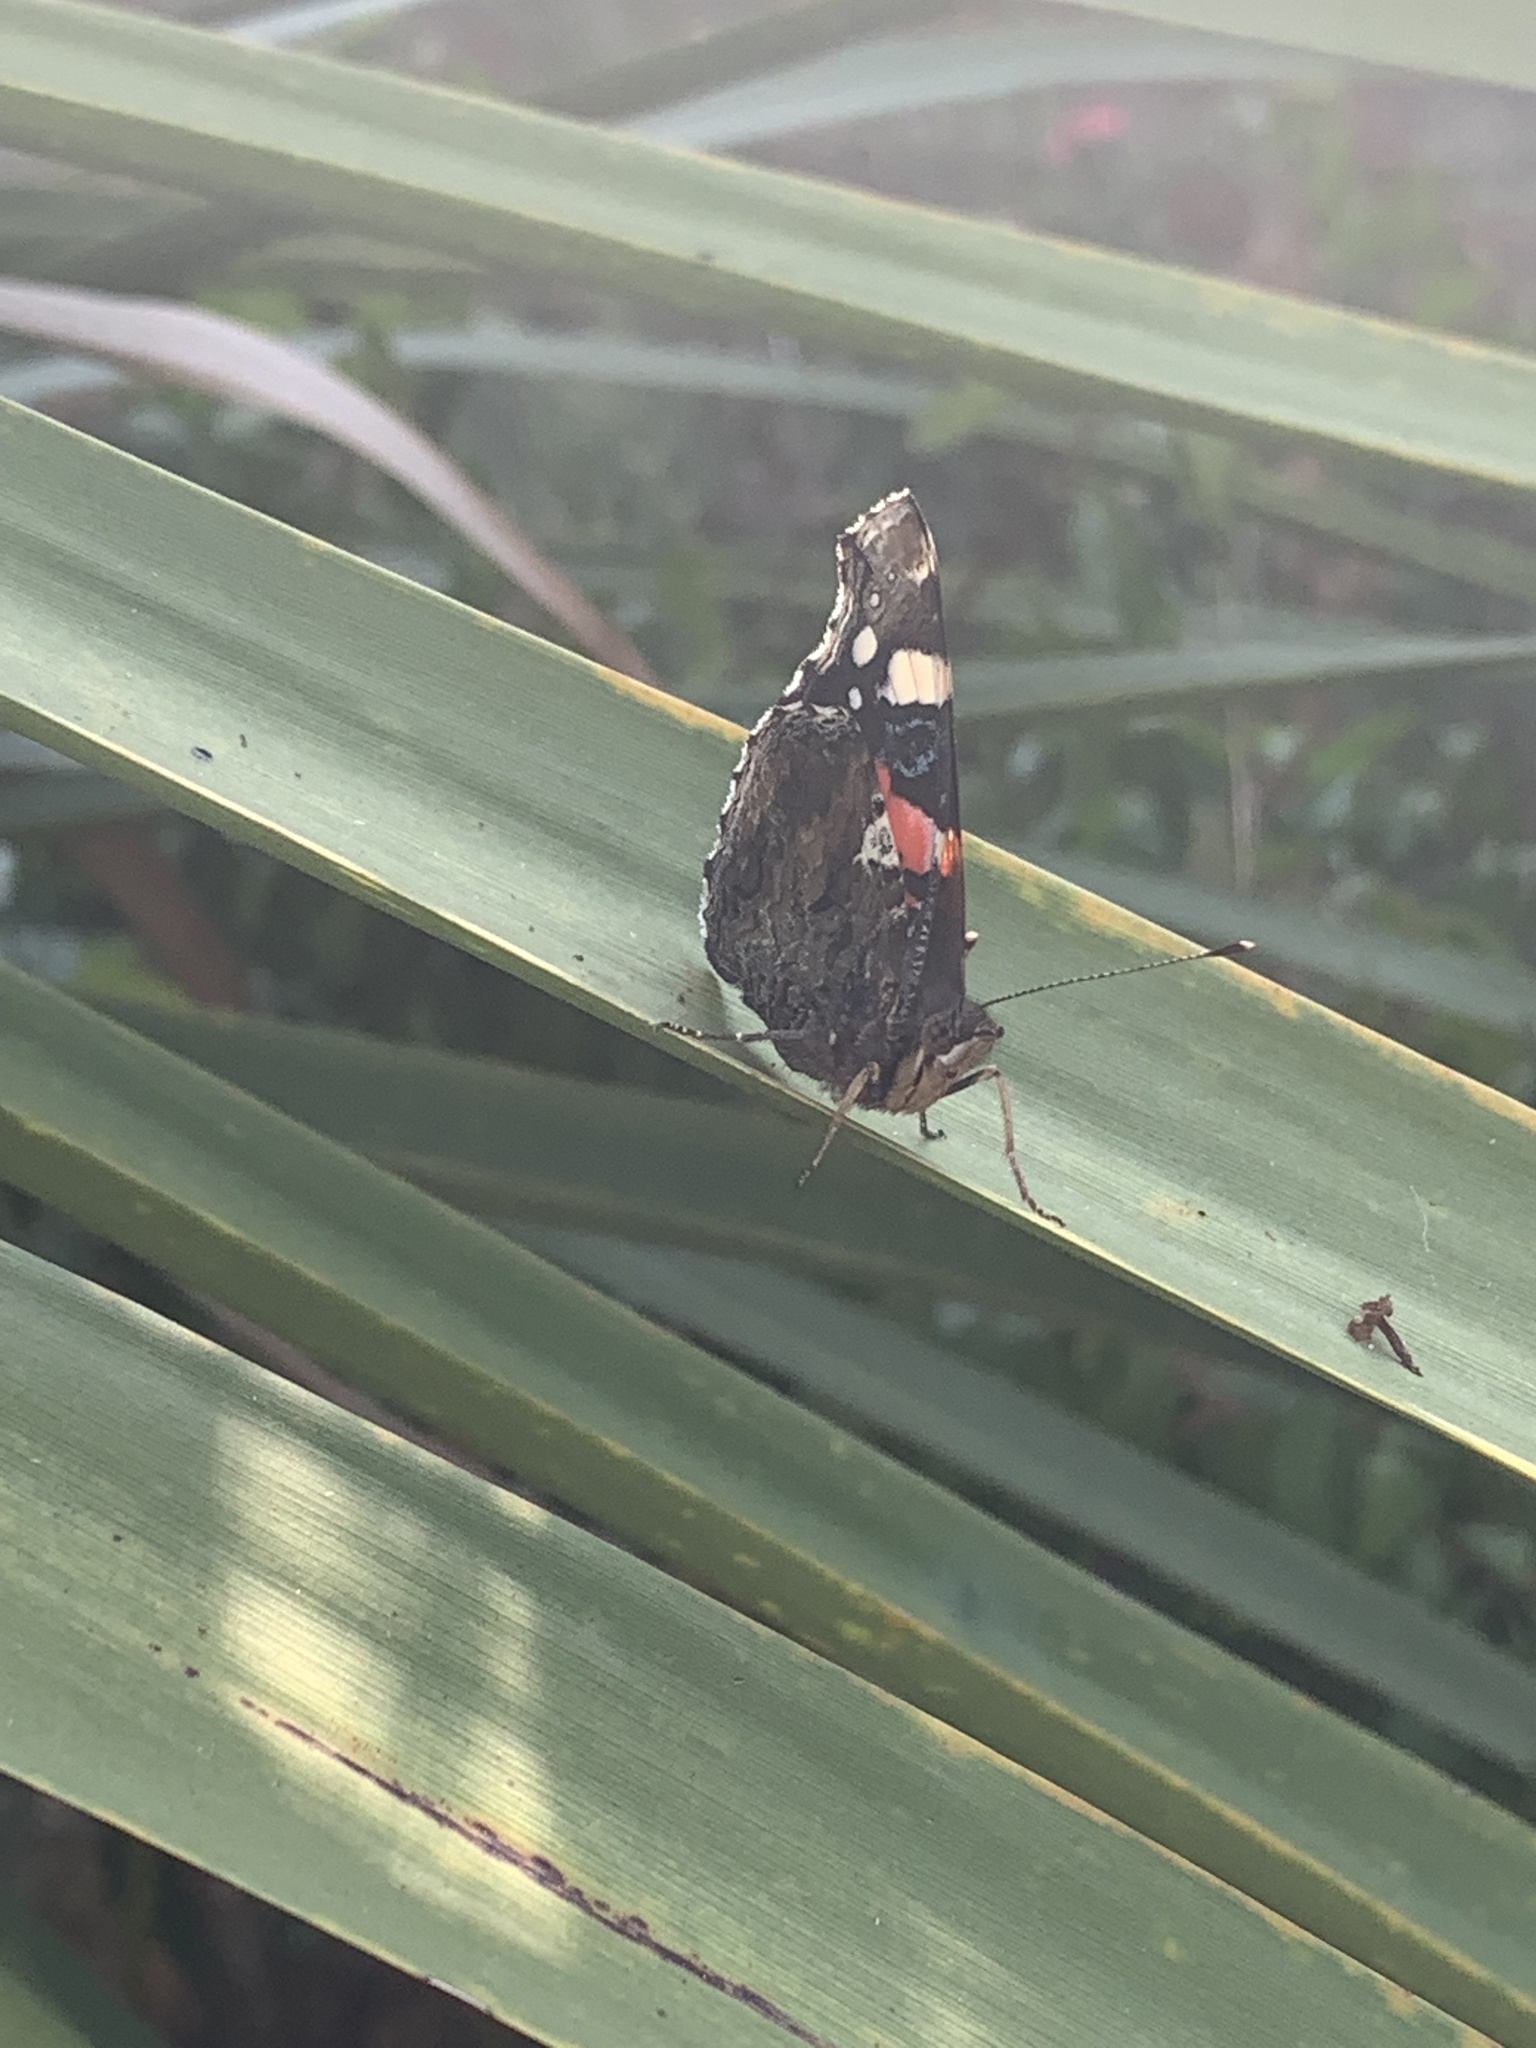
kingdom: Animalia
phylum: Arthropoda
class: Insecta
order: Lepidoptera
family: Nymphalidae
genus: Vanessa
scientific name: Vanessa atalanta
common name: Red admiral
